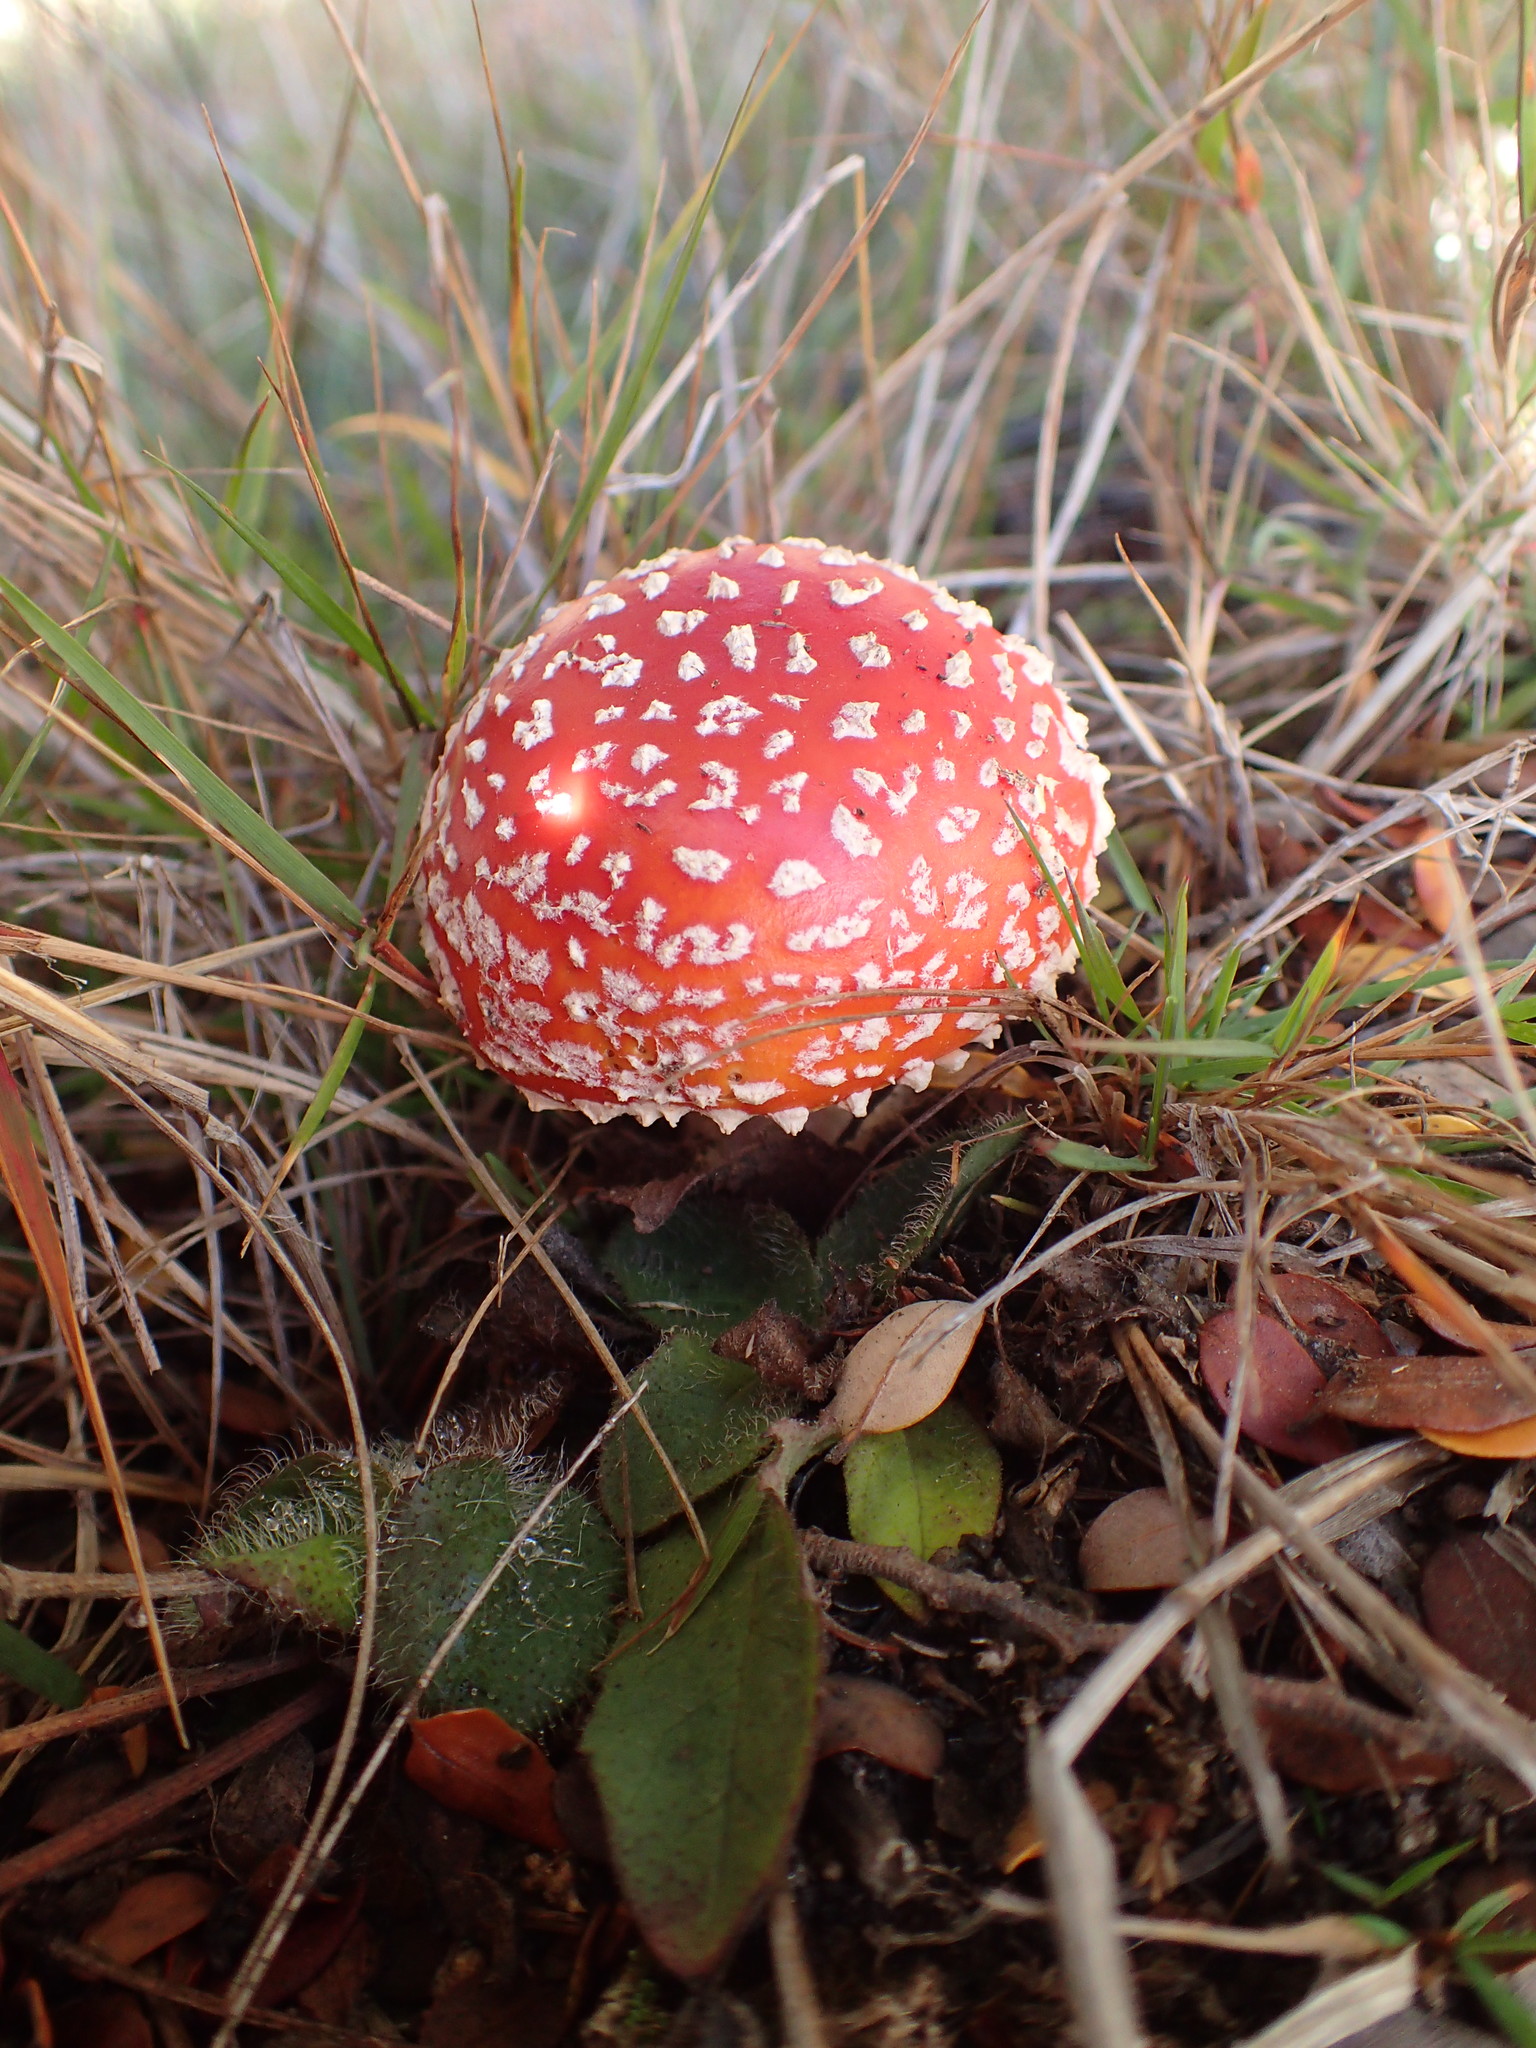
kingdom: Fungi
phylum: Basidiomycota
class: Agaricomycetes
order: Agaricales
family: Amanitaceae
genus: Amanita
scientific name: Amanita muscaria
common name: Fly agaric
